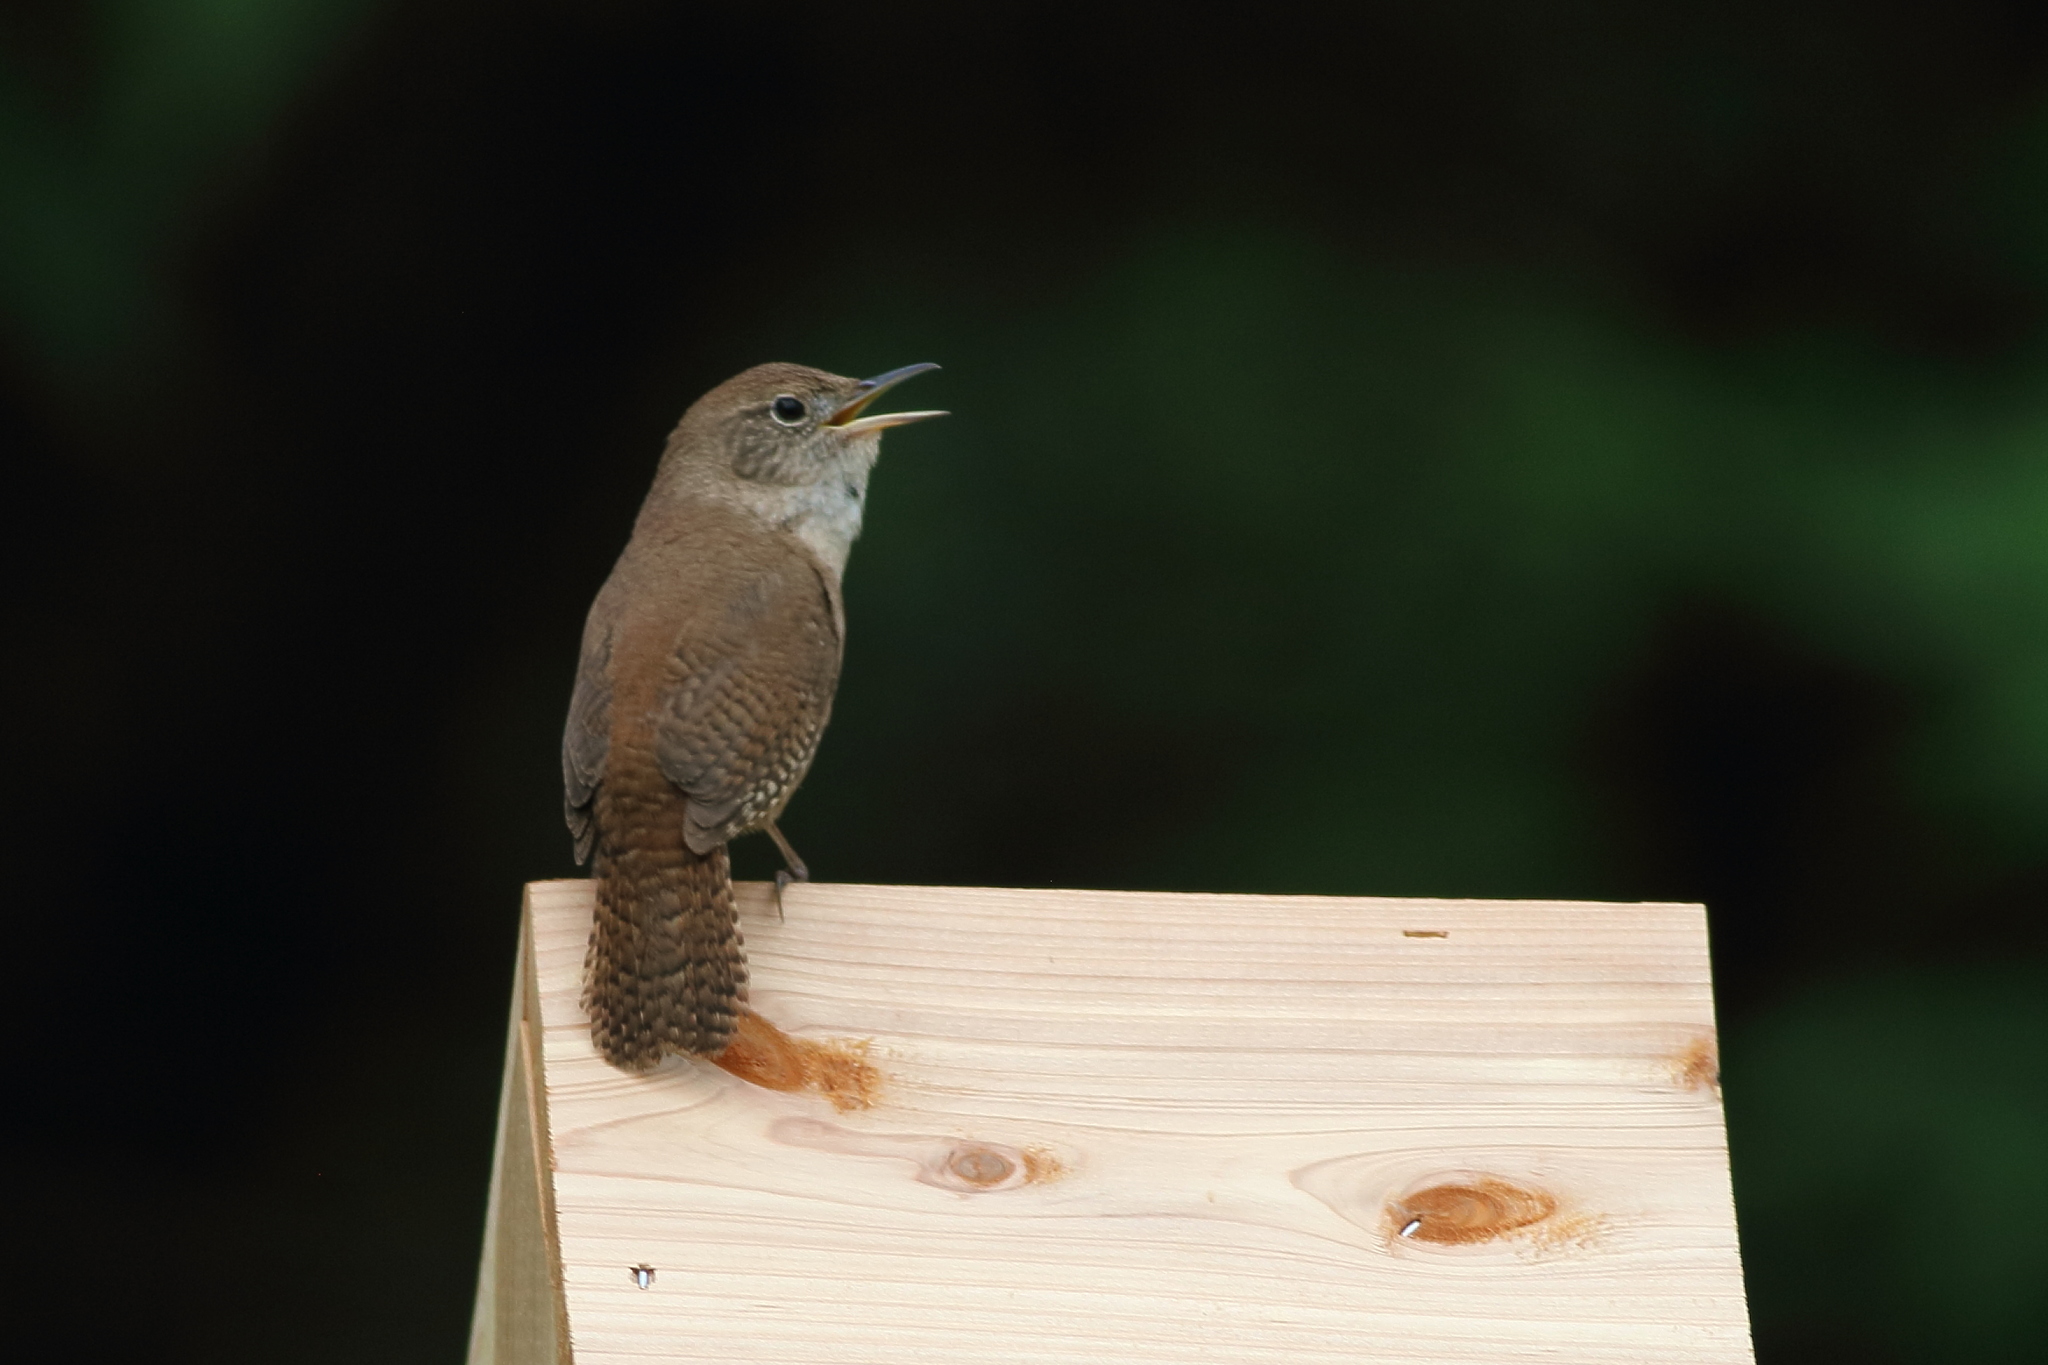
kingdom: Animalia
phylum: Chordata
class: Aves
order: Passeriformes
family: Troglodytidae
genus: Troglodytes
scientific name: Troglodytes aedon
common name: House wren
